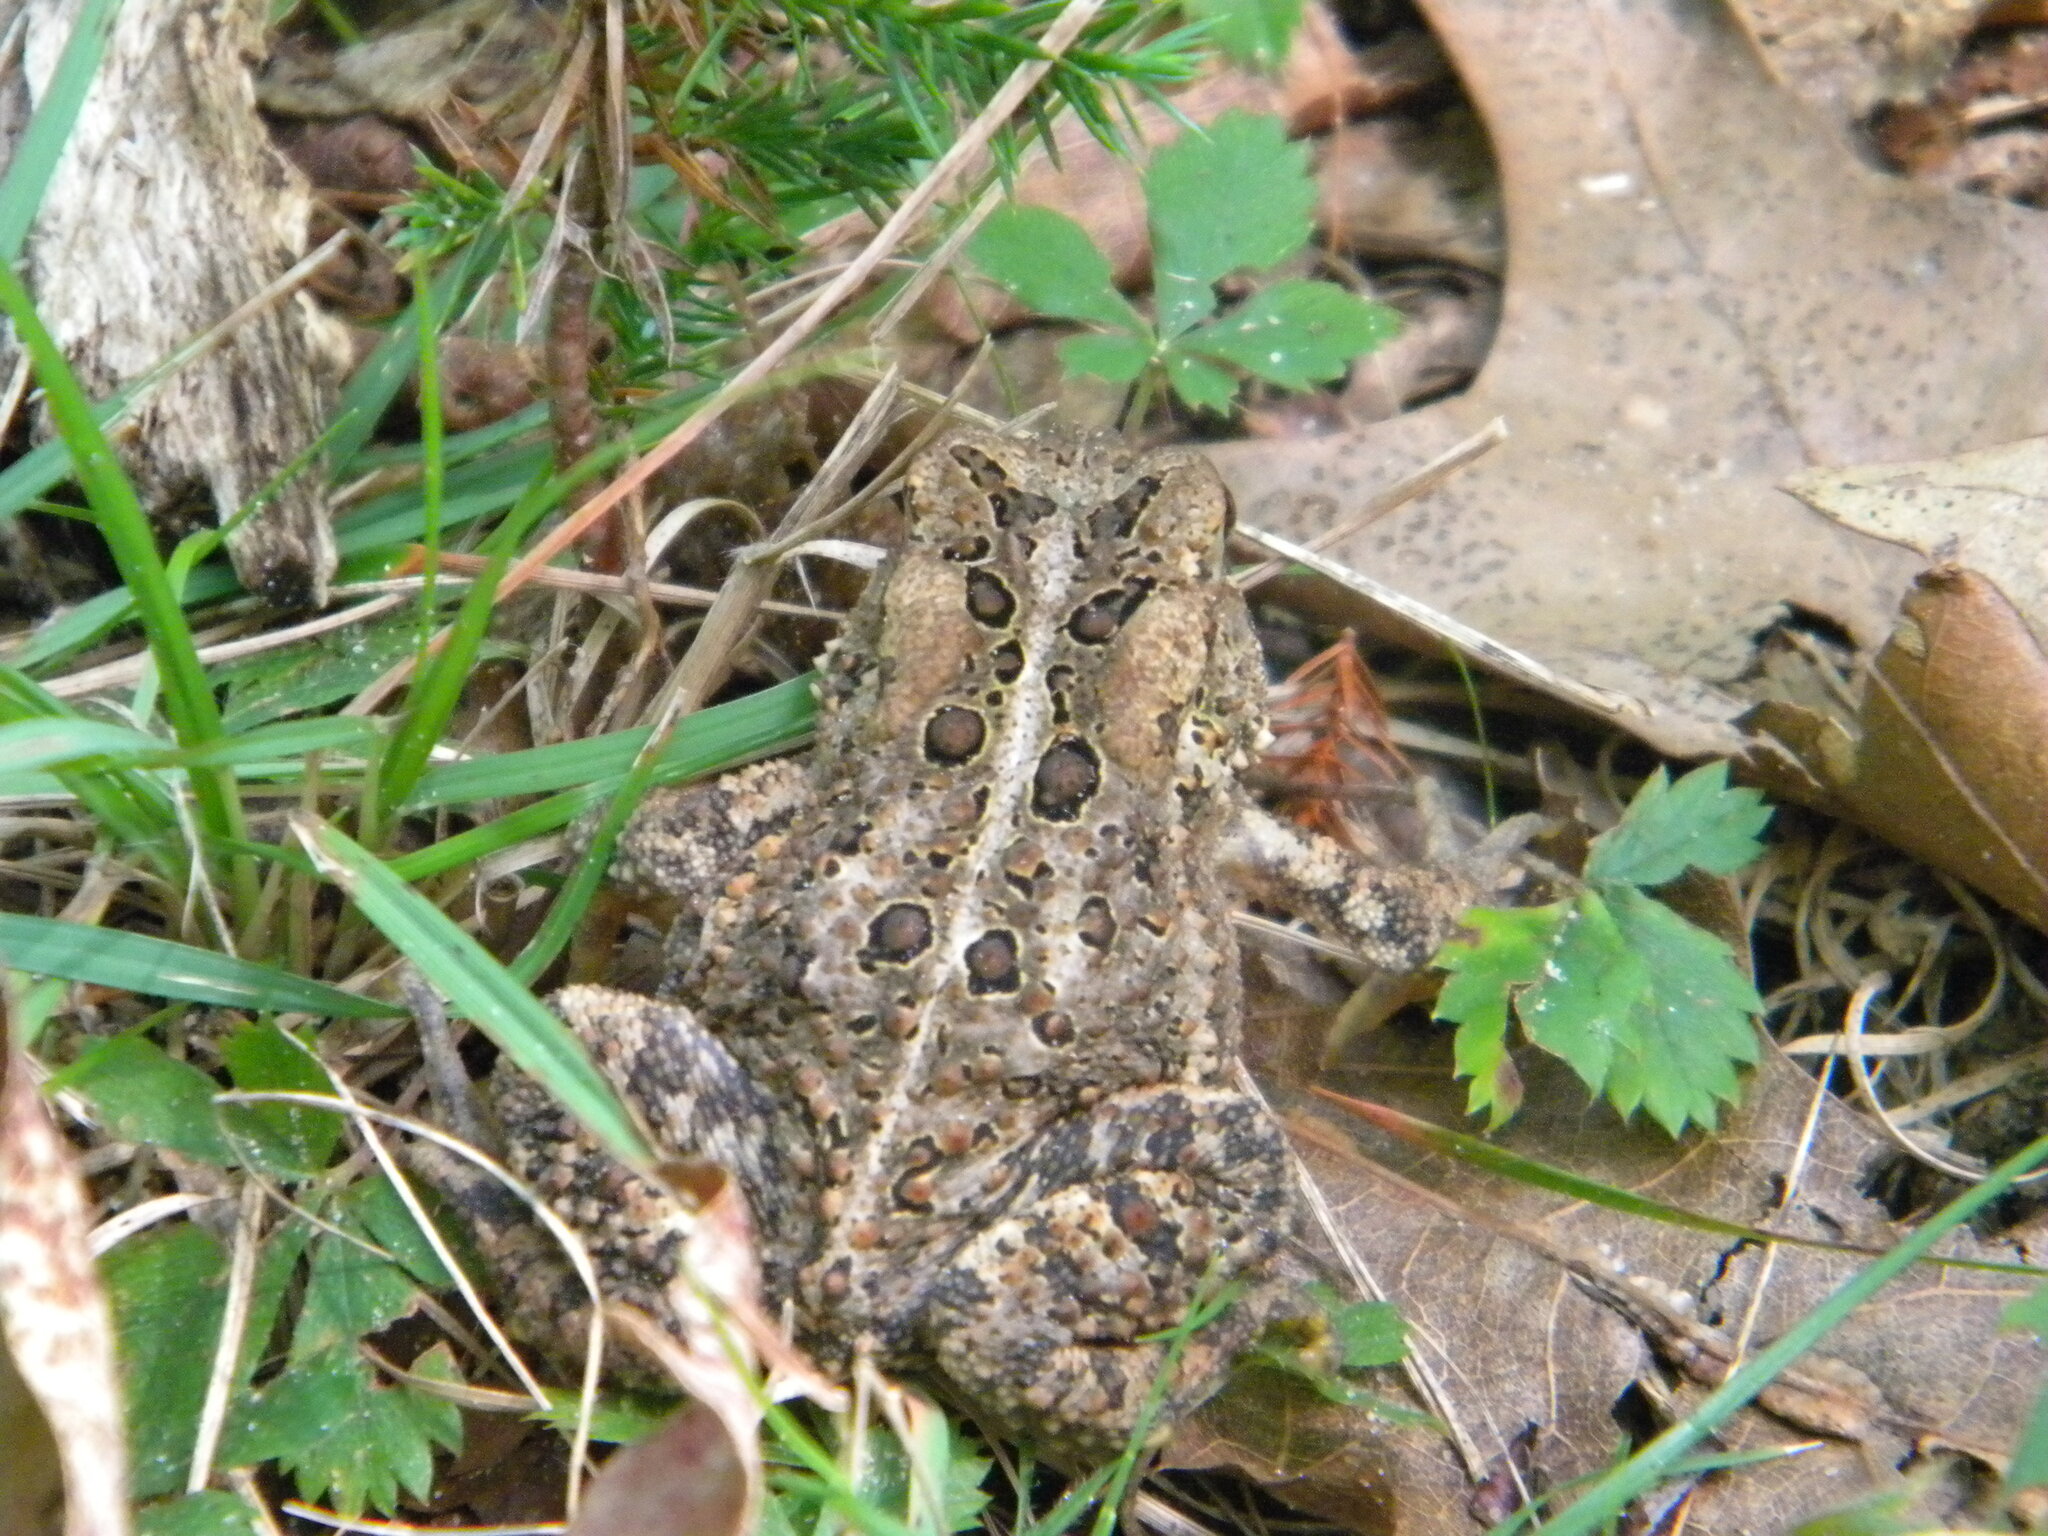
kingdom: Animalia
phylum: Chordata
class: Amphibia
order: Anura
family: Bufonidae
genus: Anaxyrus
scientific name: Anaxyrus americanus
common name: American toad
